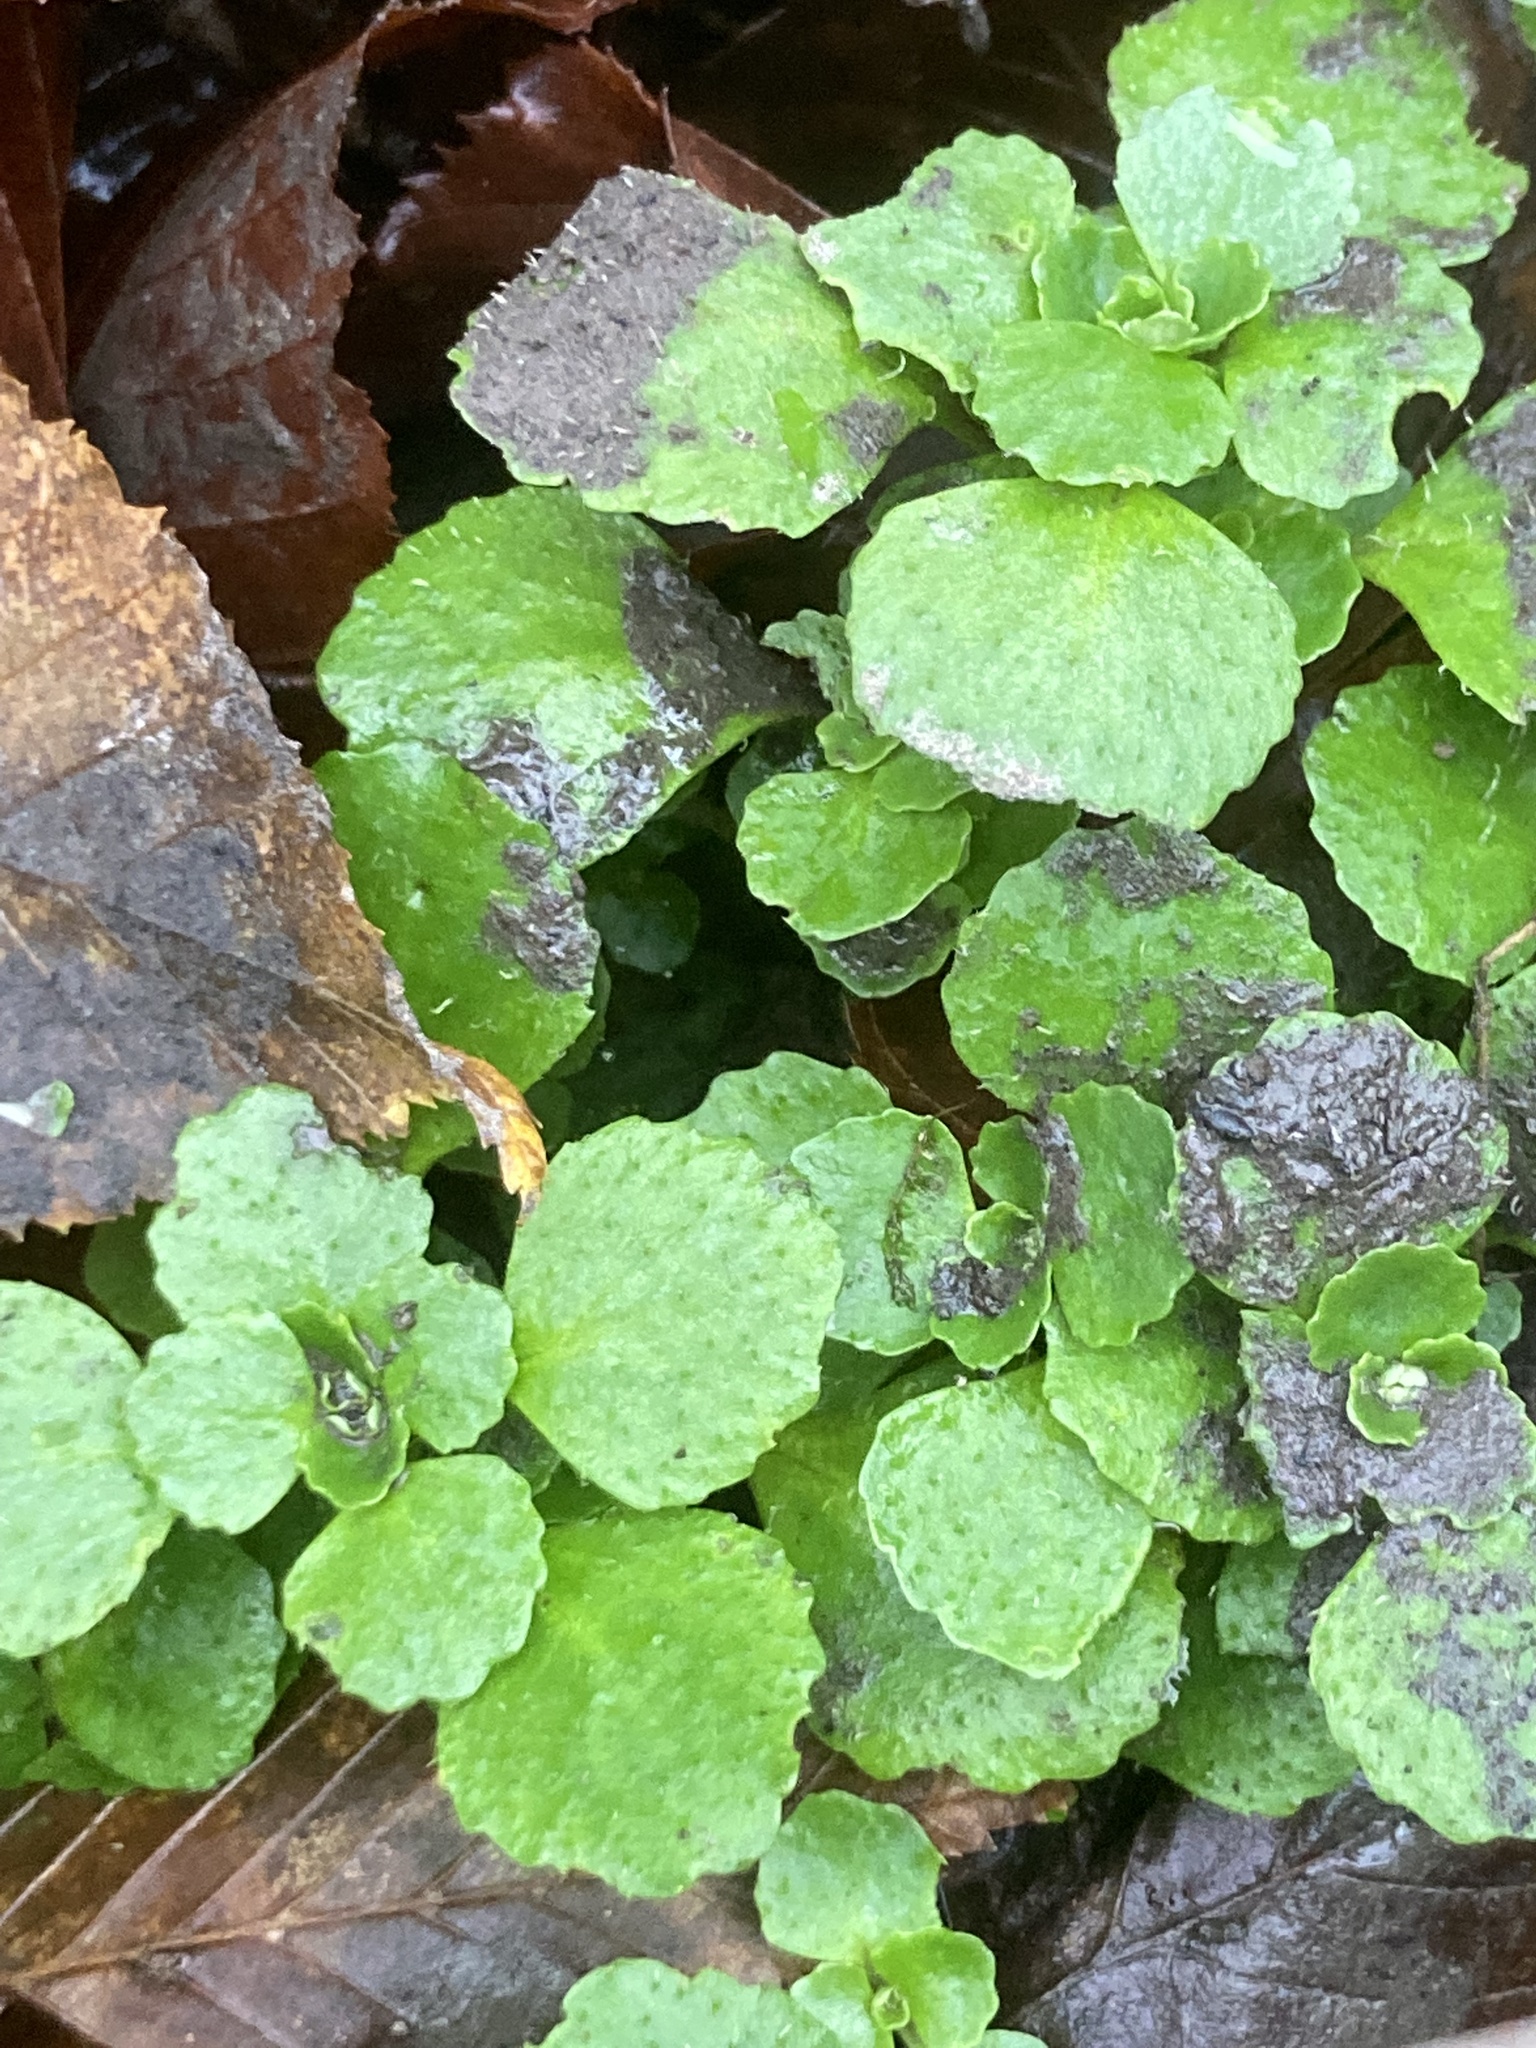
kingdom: Plantae
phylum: Tracheophyta
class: Magnoliopsida
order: Saxifragales
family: Saxifragaceae
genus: Chrysosplenium
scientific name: Chrysosplenium oppositifolium
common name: Opposite-leaved golden-saxifrage
